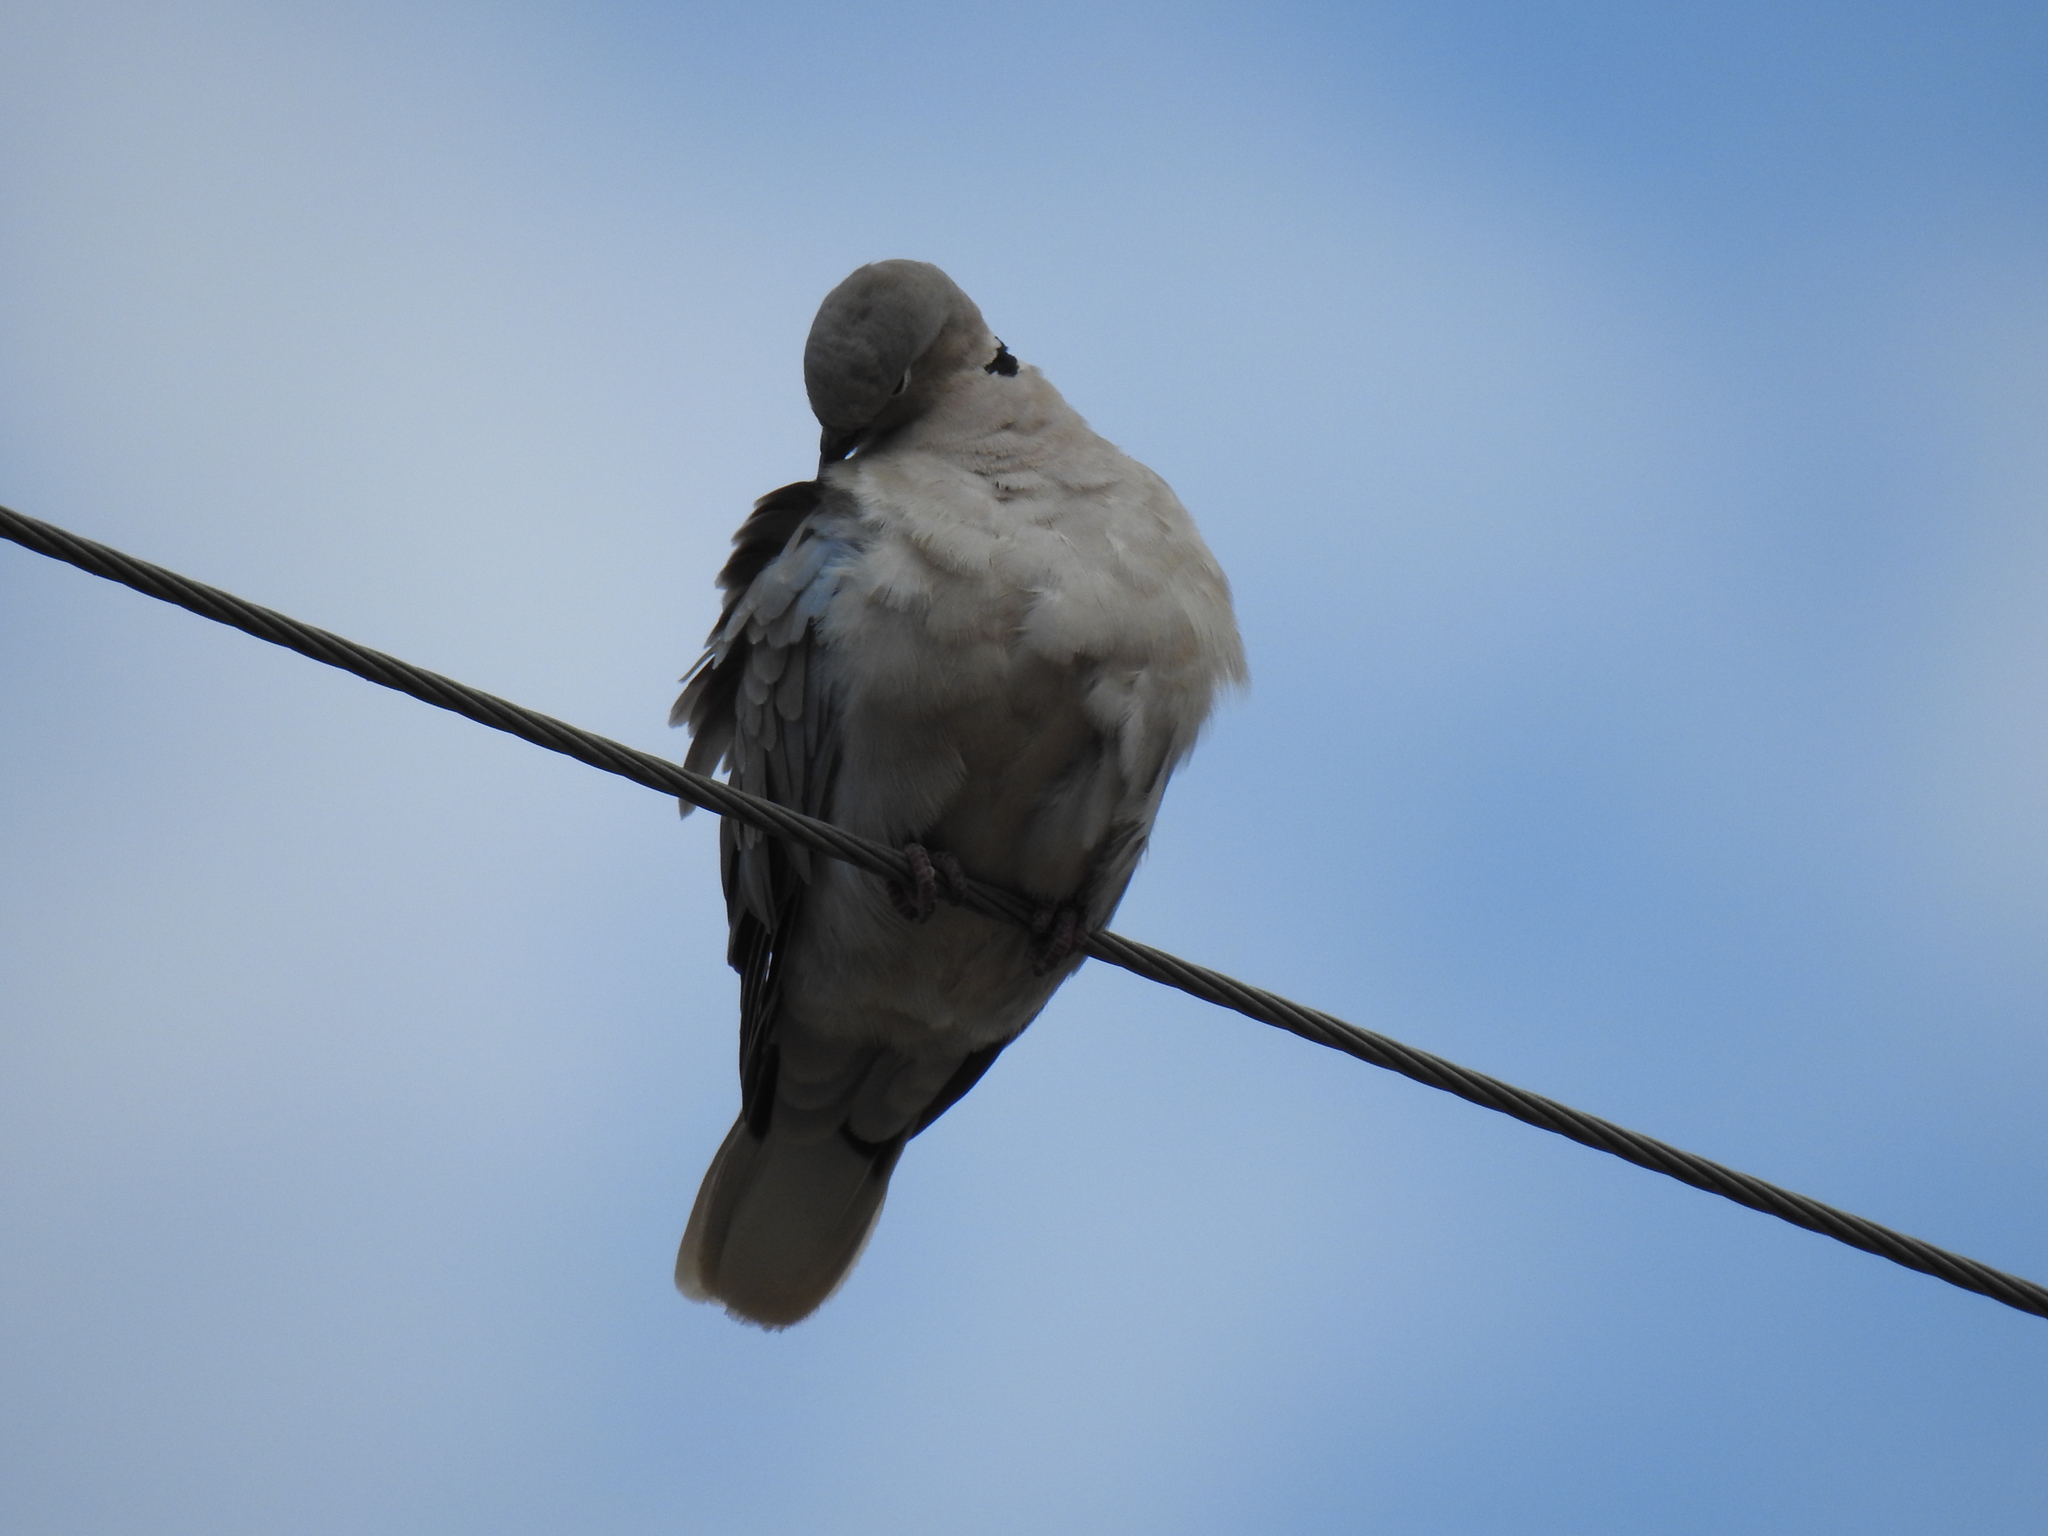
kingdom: Animalia
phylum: Chordata
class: Aves
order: Columbiformes
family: Columbidae
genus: Streptopelia
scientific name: Streptopelia decaocto
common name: Eurasian collared dove
